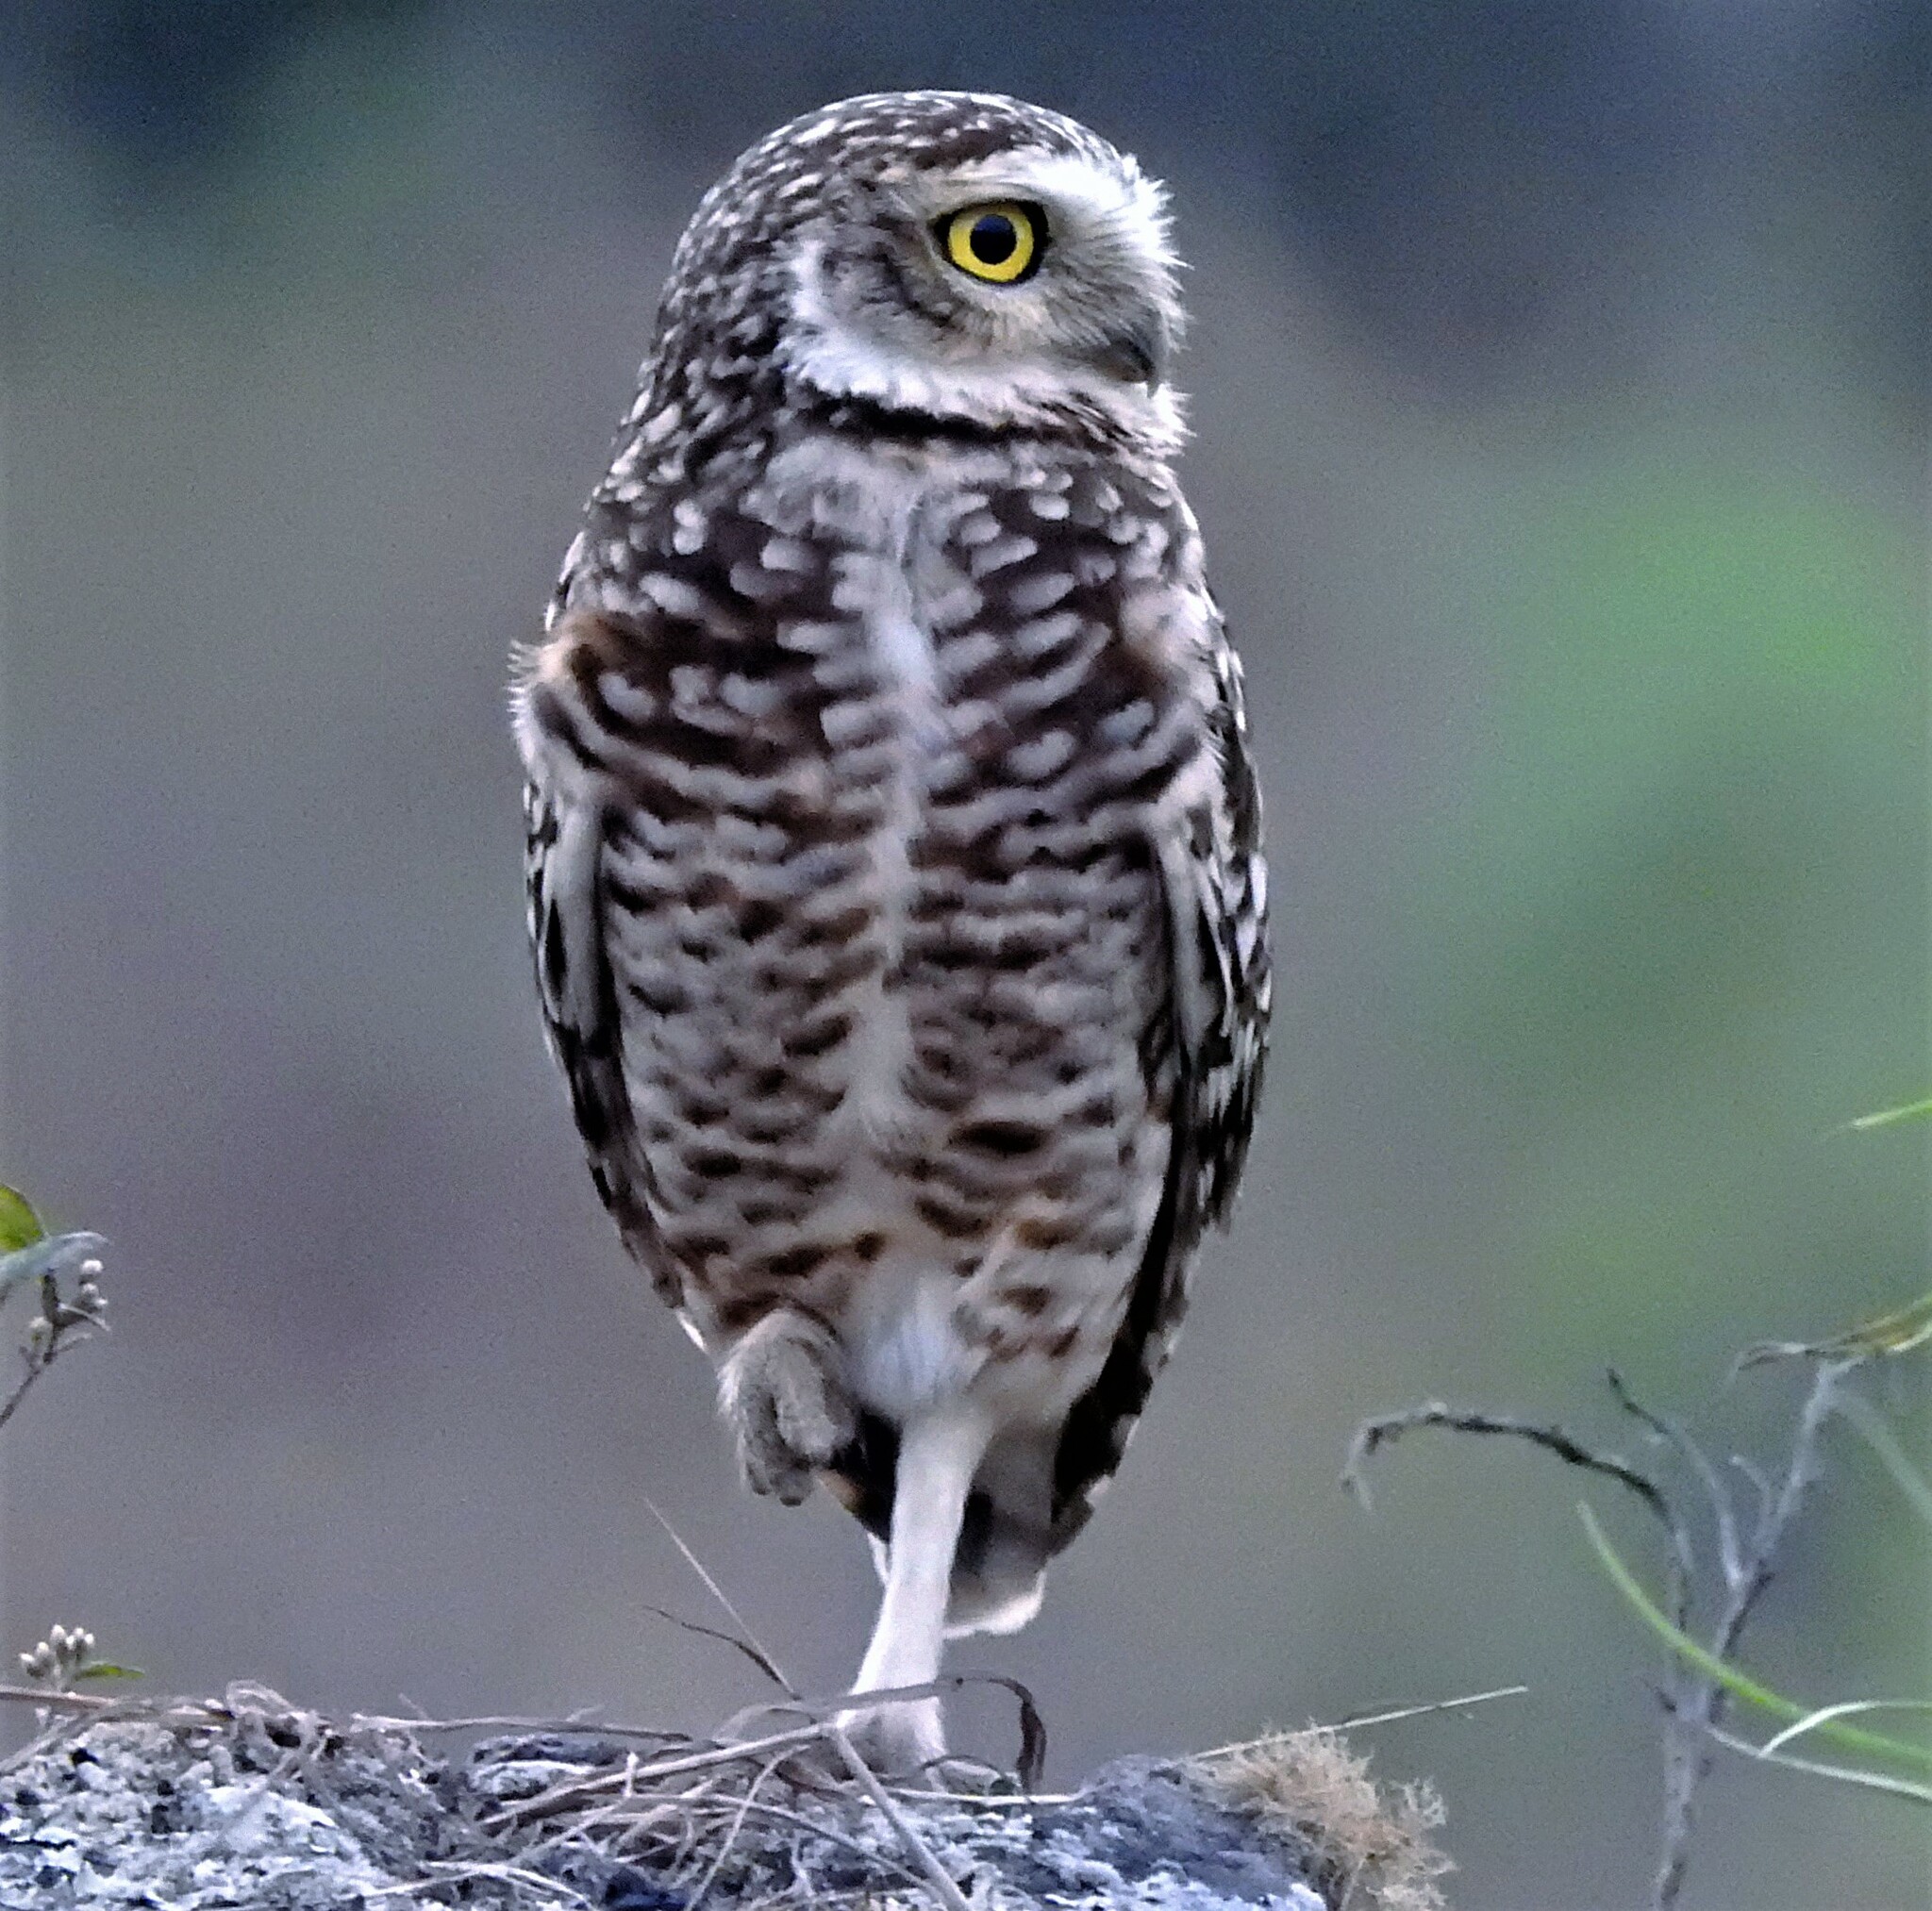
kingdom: Animalia
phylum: Chordata
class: Aves
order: Strigiformes
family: Strigidae
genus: Athene
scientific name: Athene cunicularia
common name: Burrowing owl
